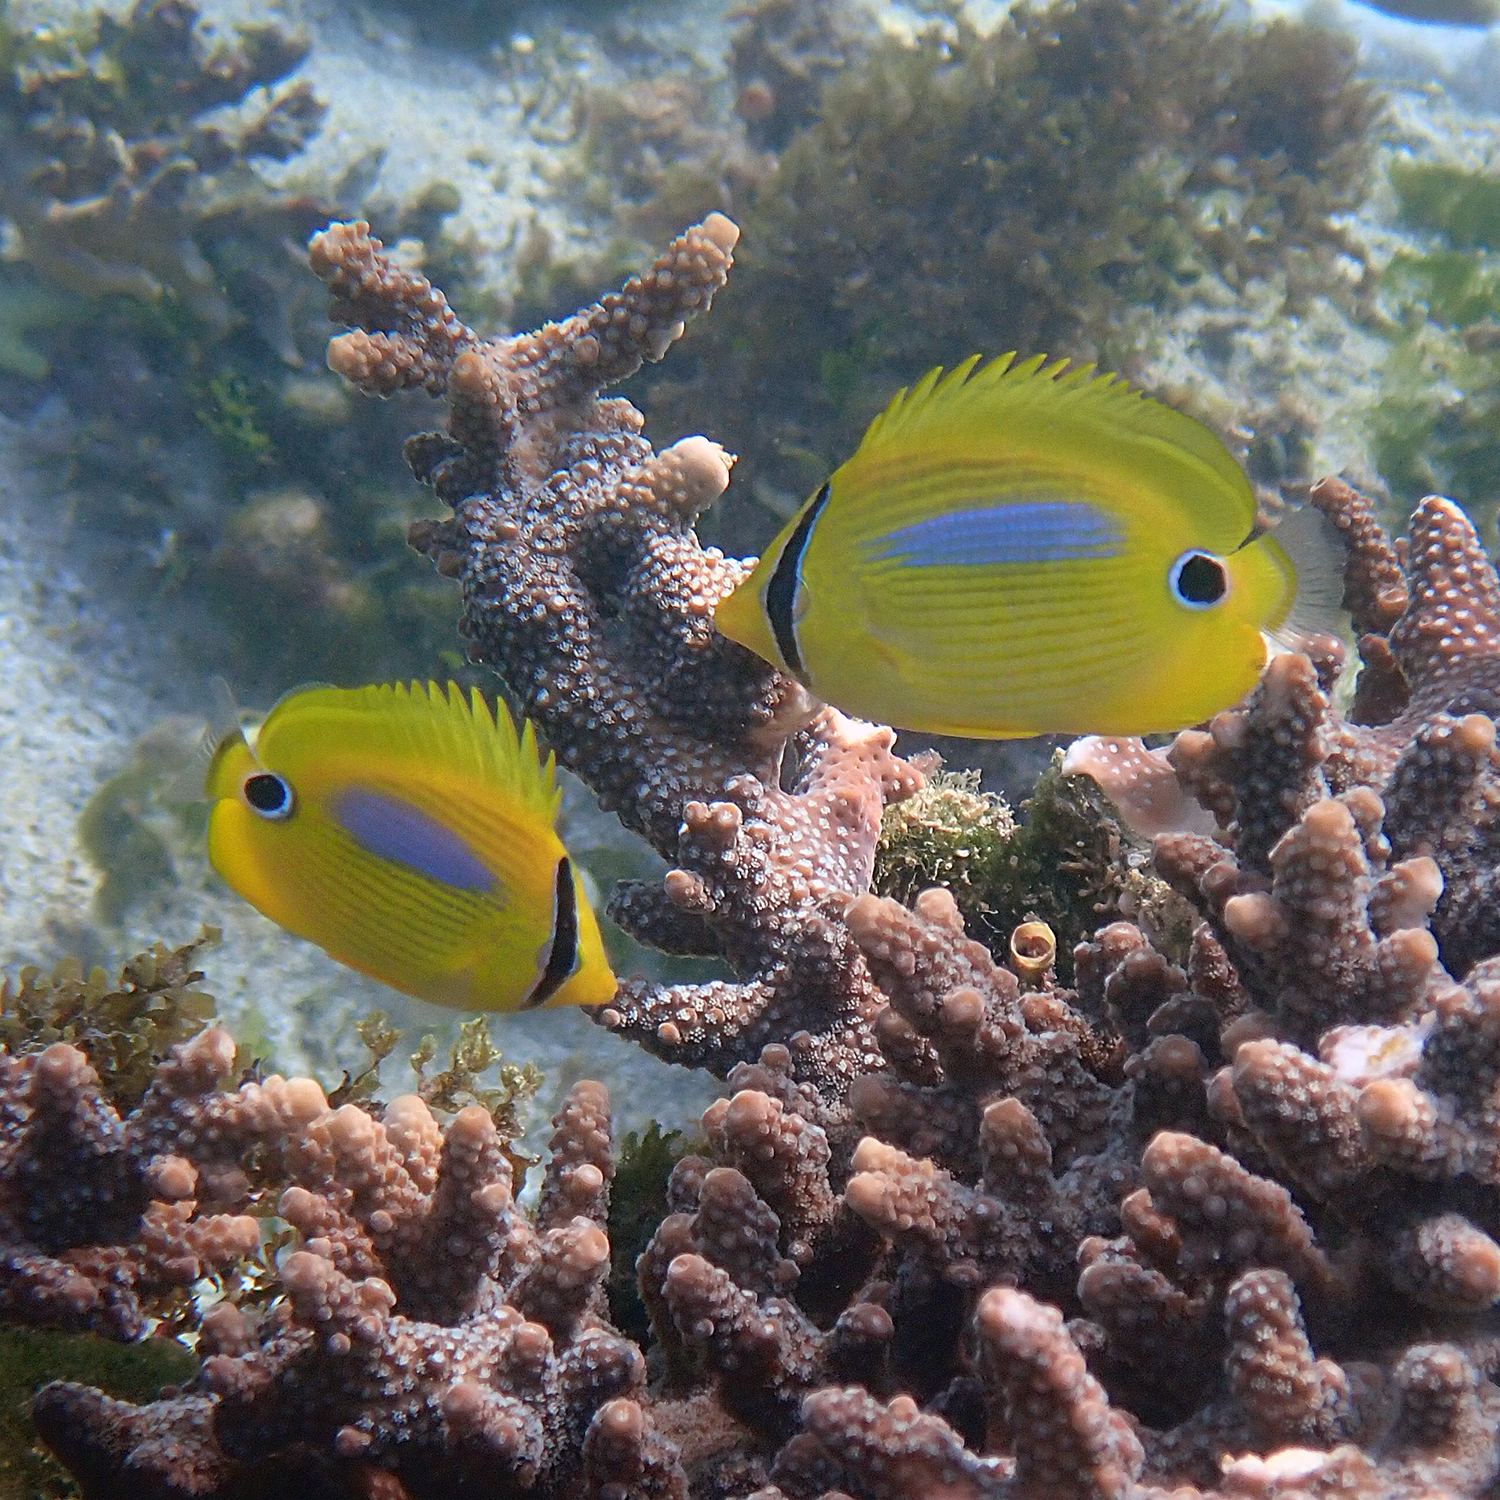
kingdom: Animalia
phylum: Chordata
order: Perciformes
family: Chaetodontidae
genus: Chaetodon
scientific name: Chaetodon plebeius
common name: Bluespot butterflyfish
